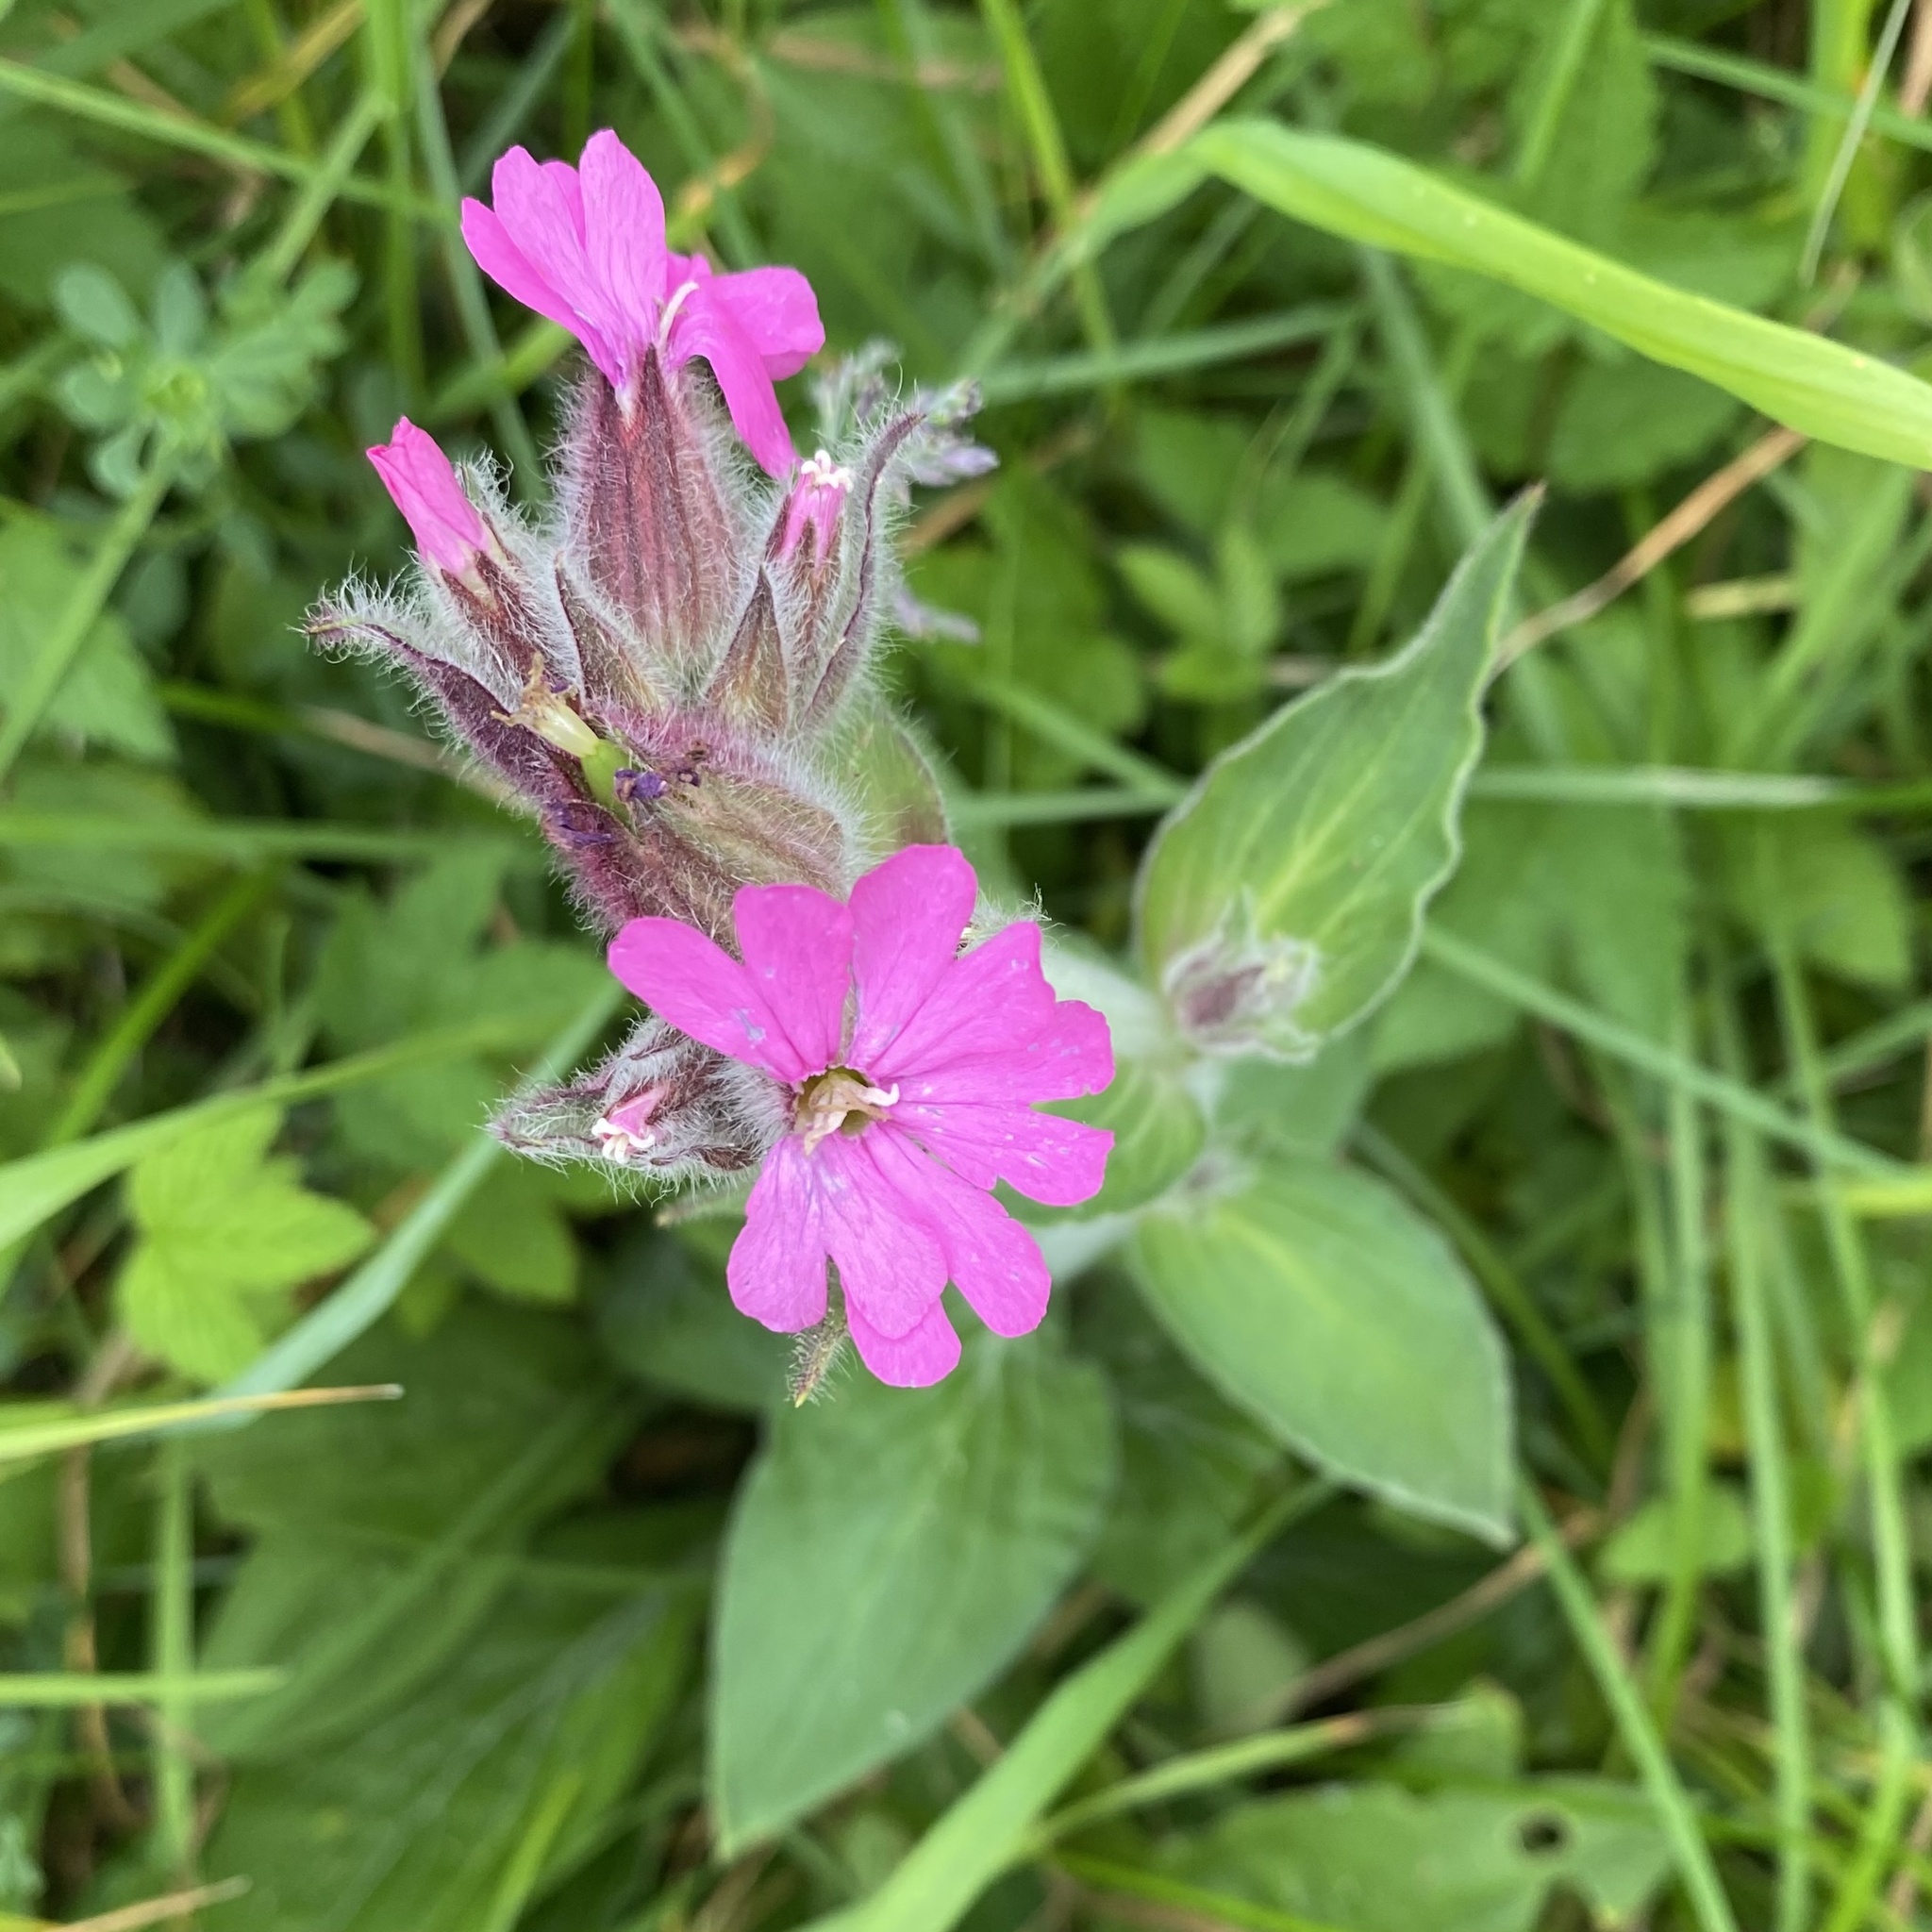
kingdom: Plantae
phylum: Tracheophyta
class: Magnoliopsida
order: Caryophyllales
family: Caryophyllaceae
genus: Silene
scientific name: Silene dioica
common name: Red campion
